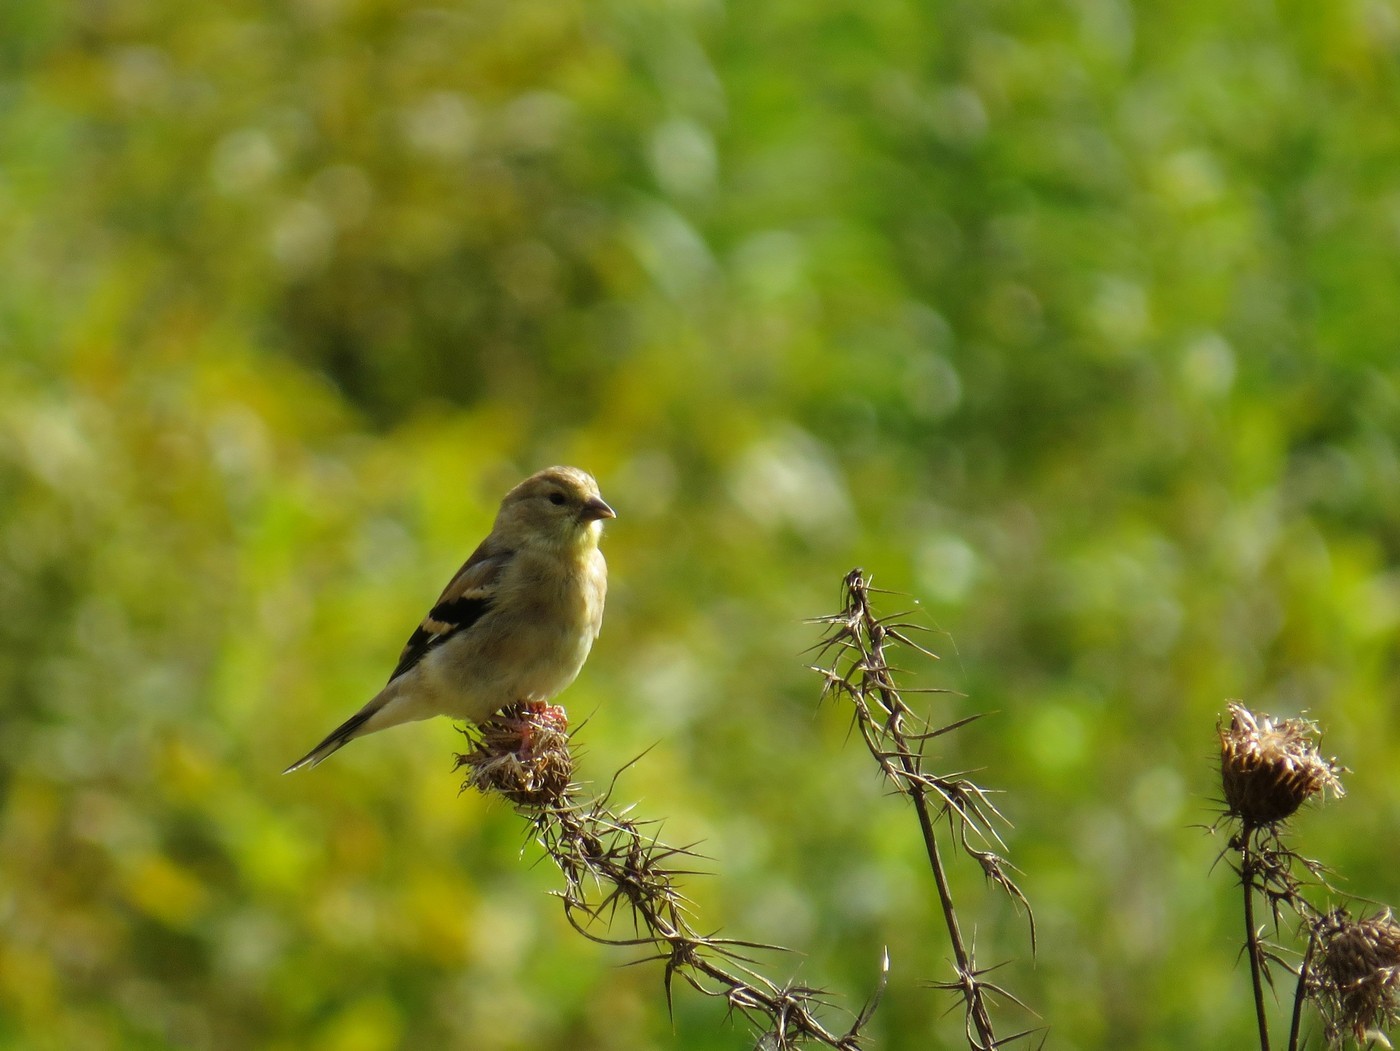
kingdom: Animalia
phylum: Chordata
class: Aves
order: Passeriformes
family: Fringillidae
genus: Spinus
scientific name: Spinus tristis
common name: American goldfinch
